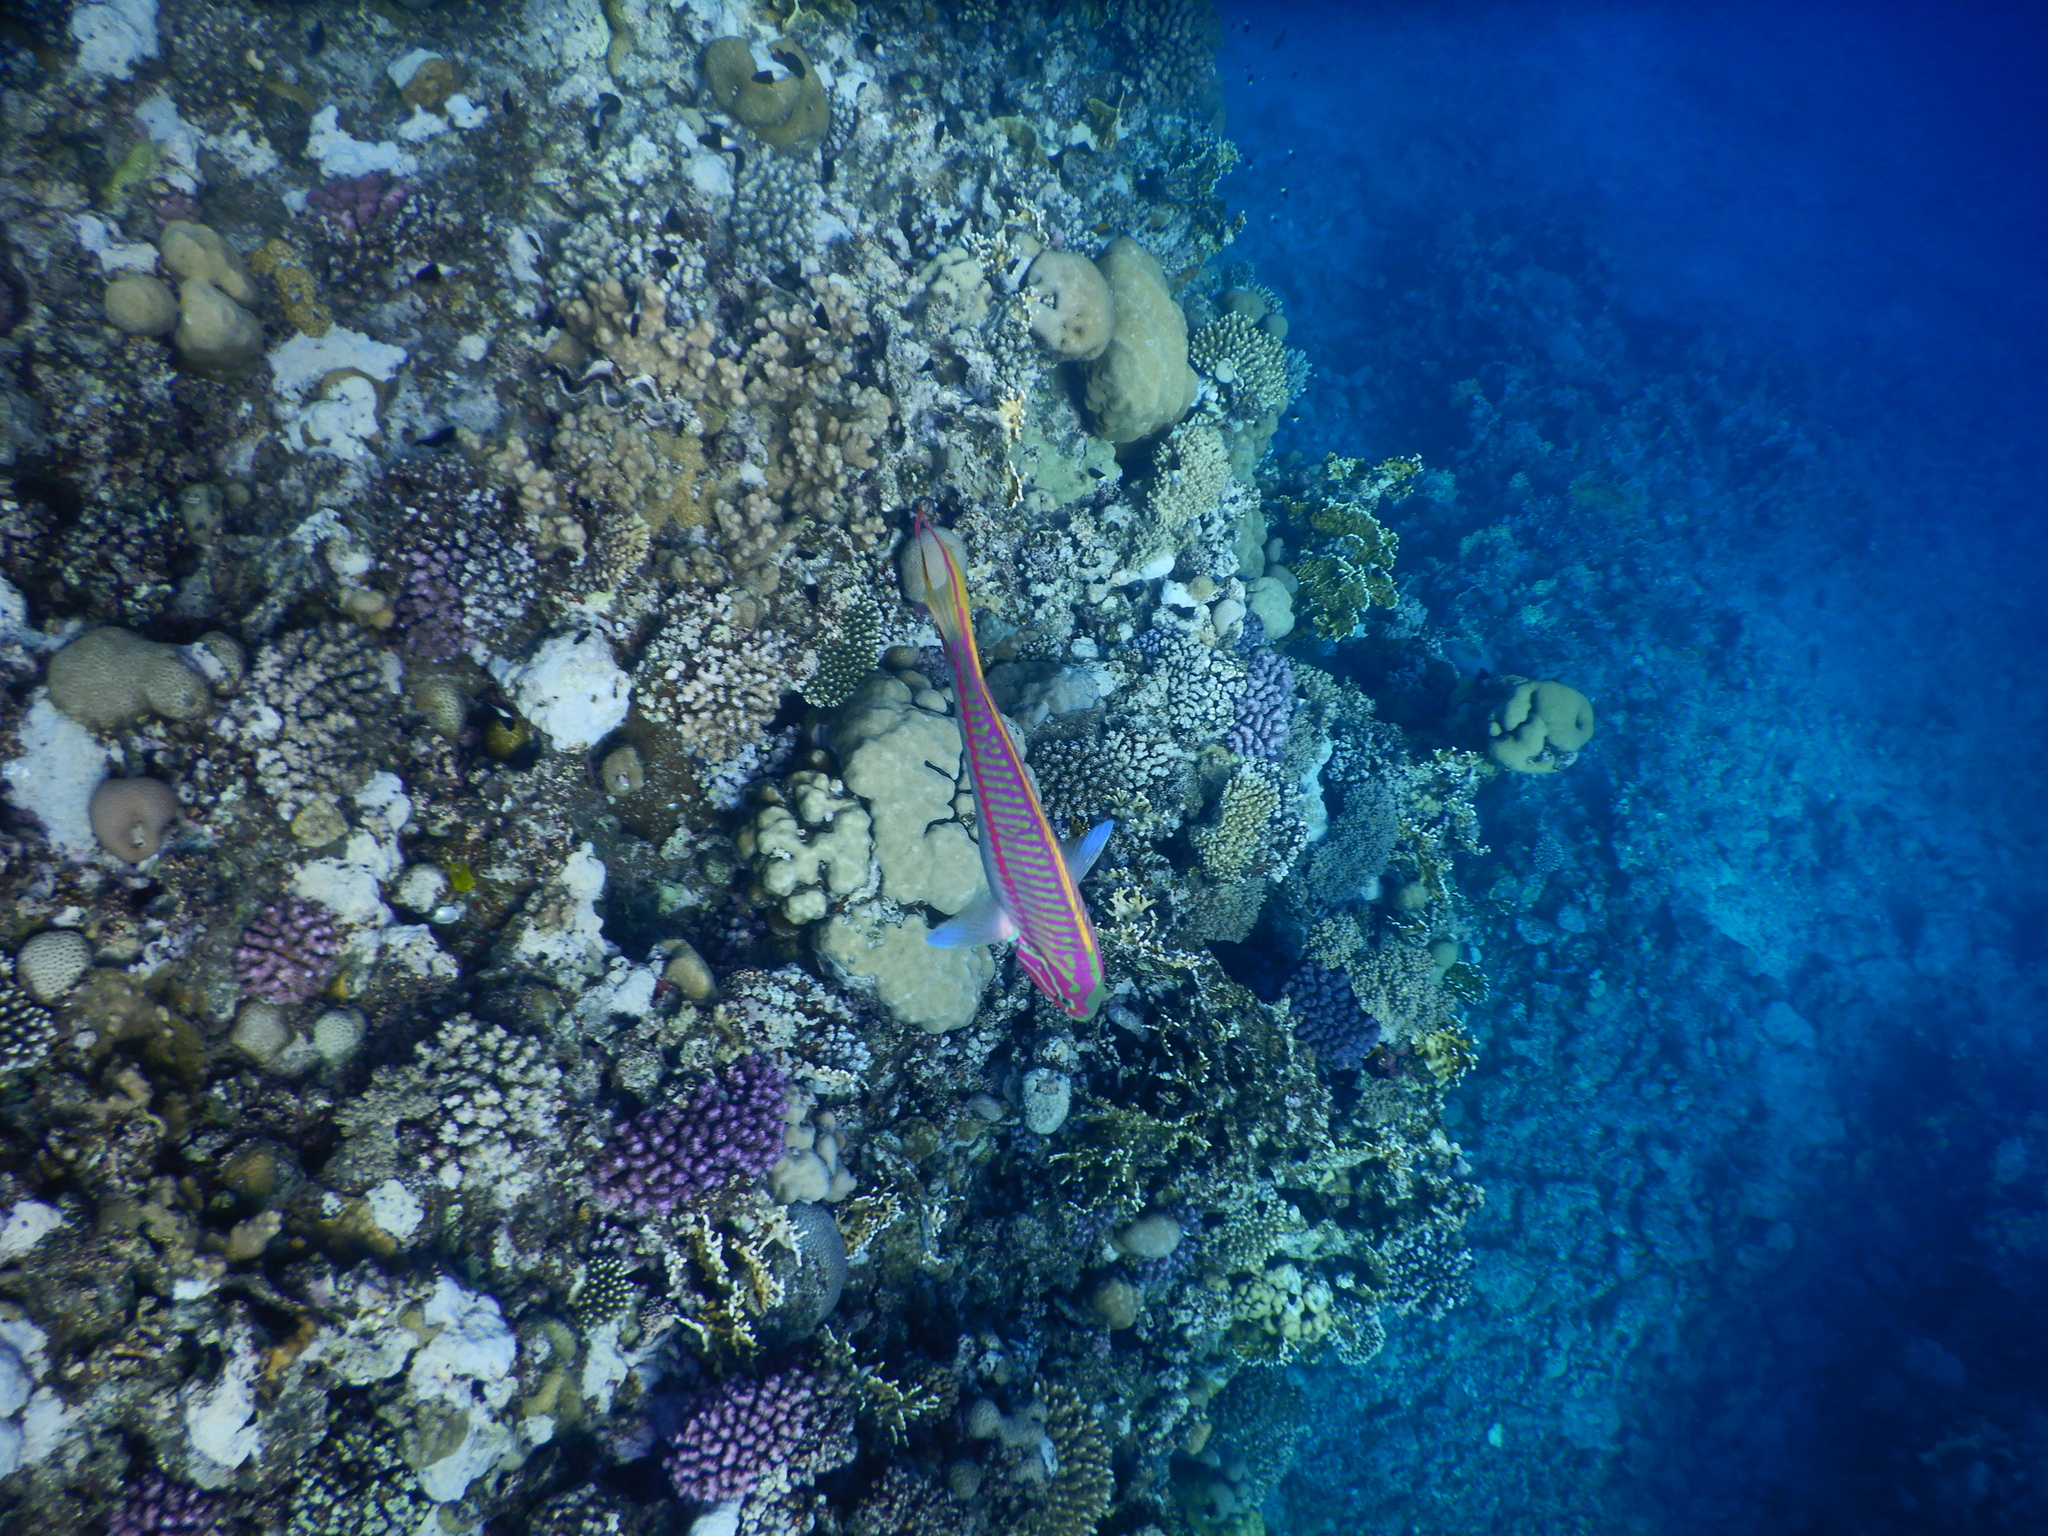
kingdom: Animalia
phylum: Chordata
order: Perciformes
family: Labridae
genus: Thalassoma
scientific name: Thalassoma rueppellii
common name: Klunzinger's wrasse
